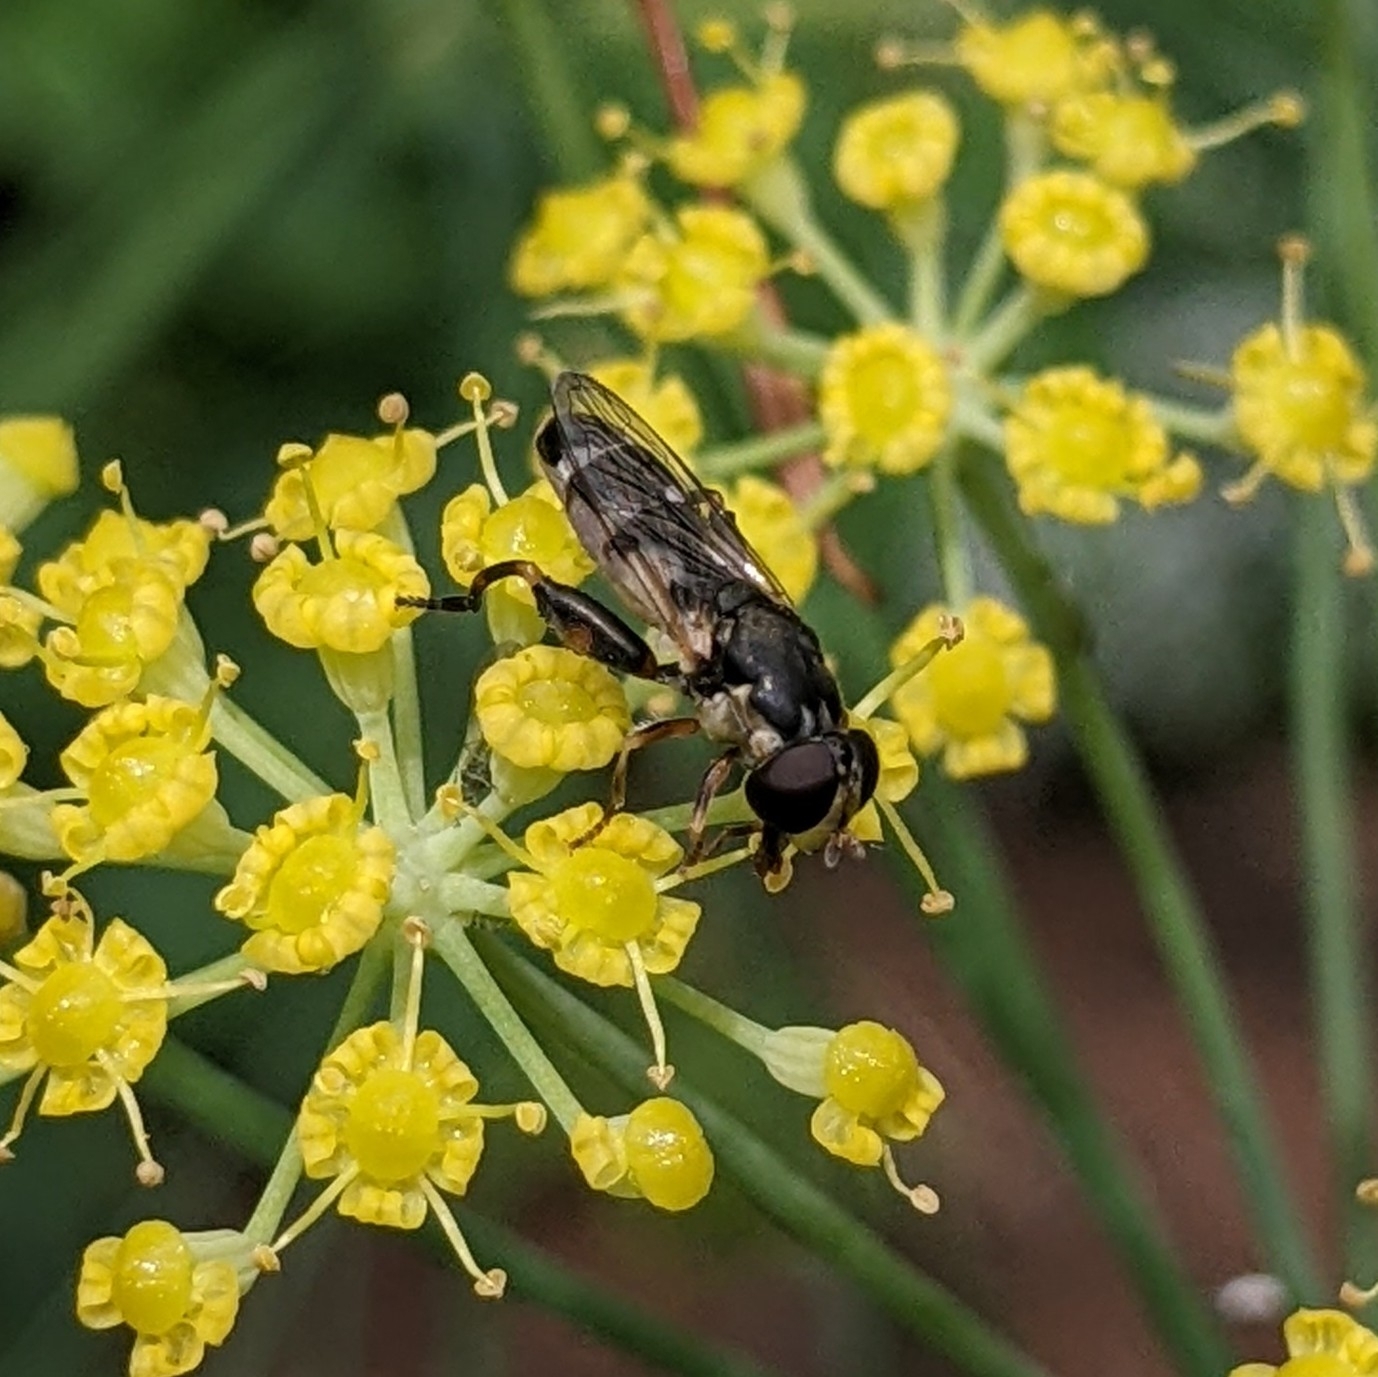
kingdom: Animalia
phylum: Arthropoda
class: Insecta
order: Diptera
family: Syrphidae
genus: Syritta
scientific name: Syritta pipiens
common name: Hover fly
